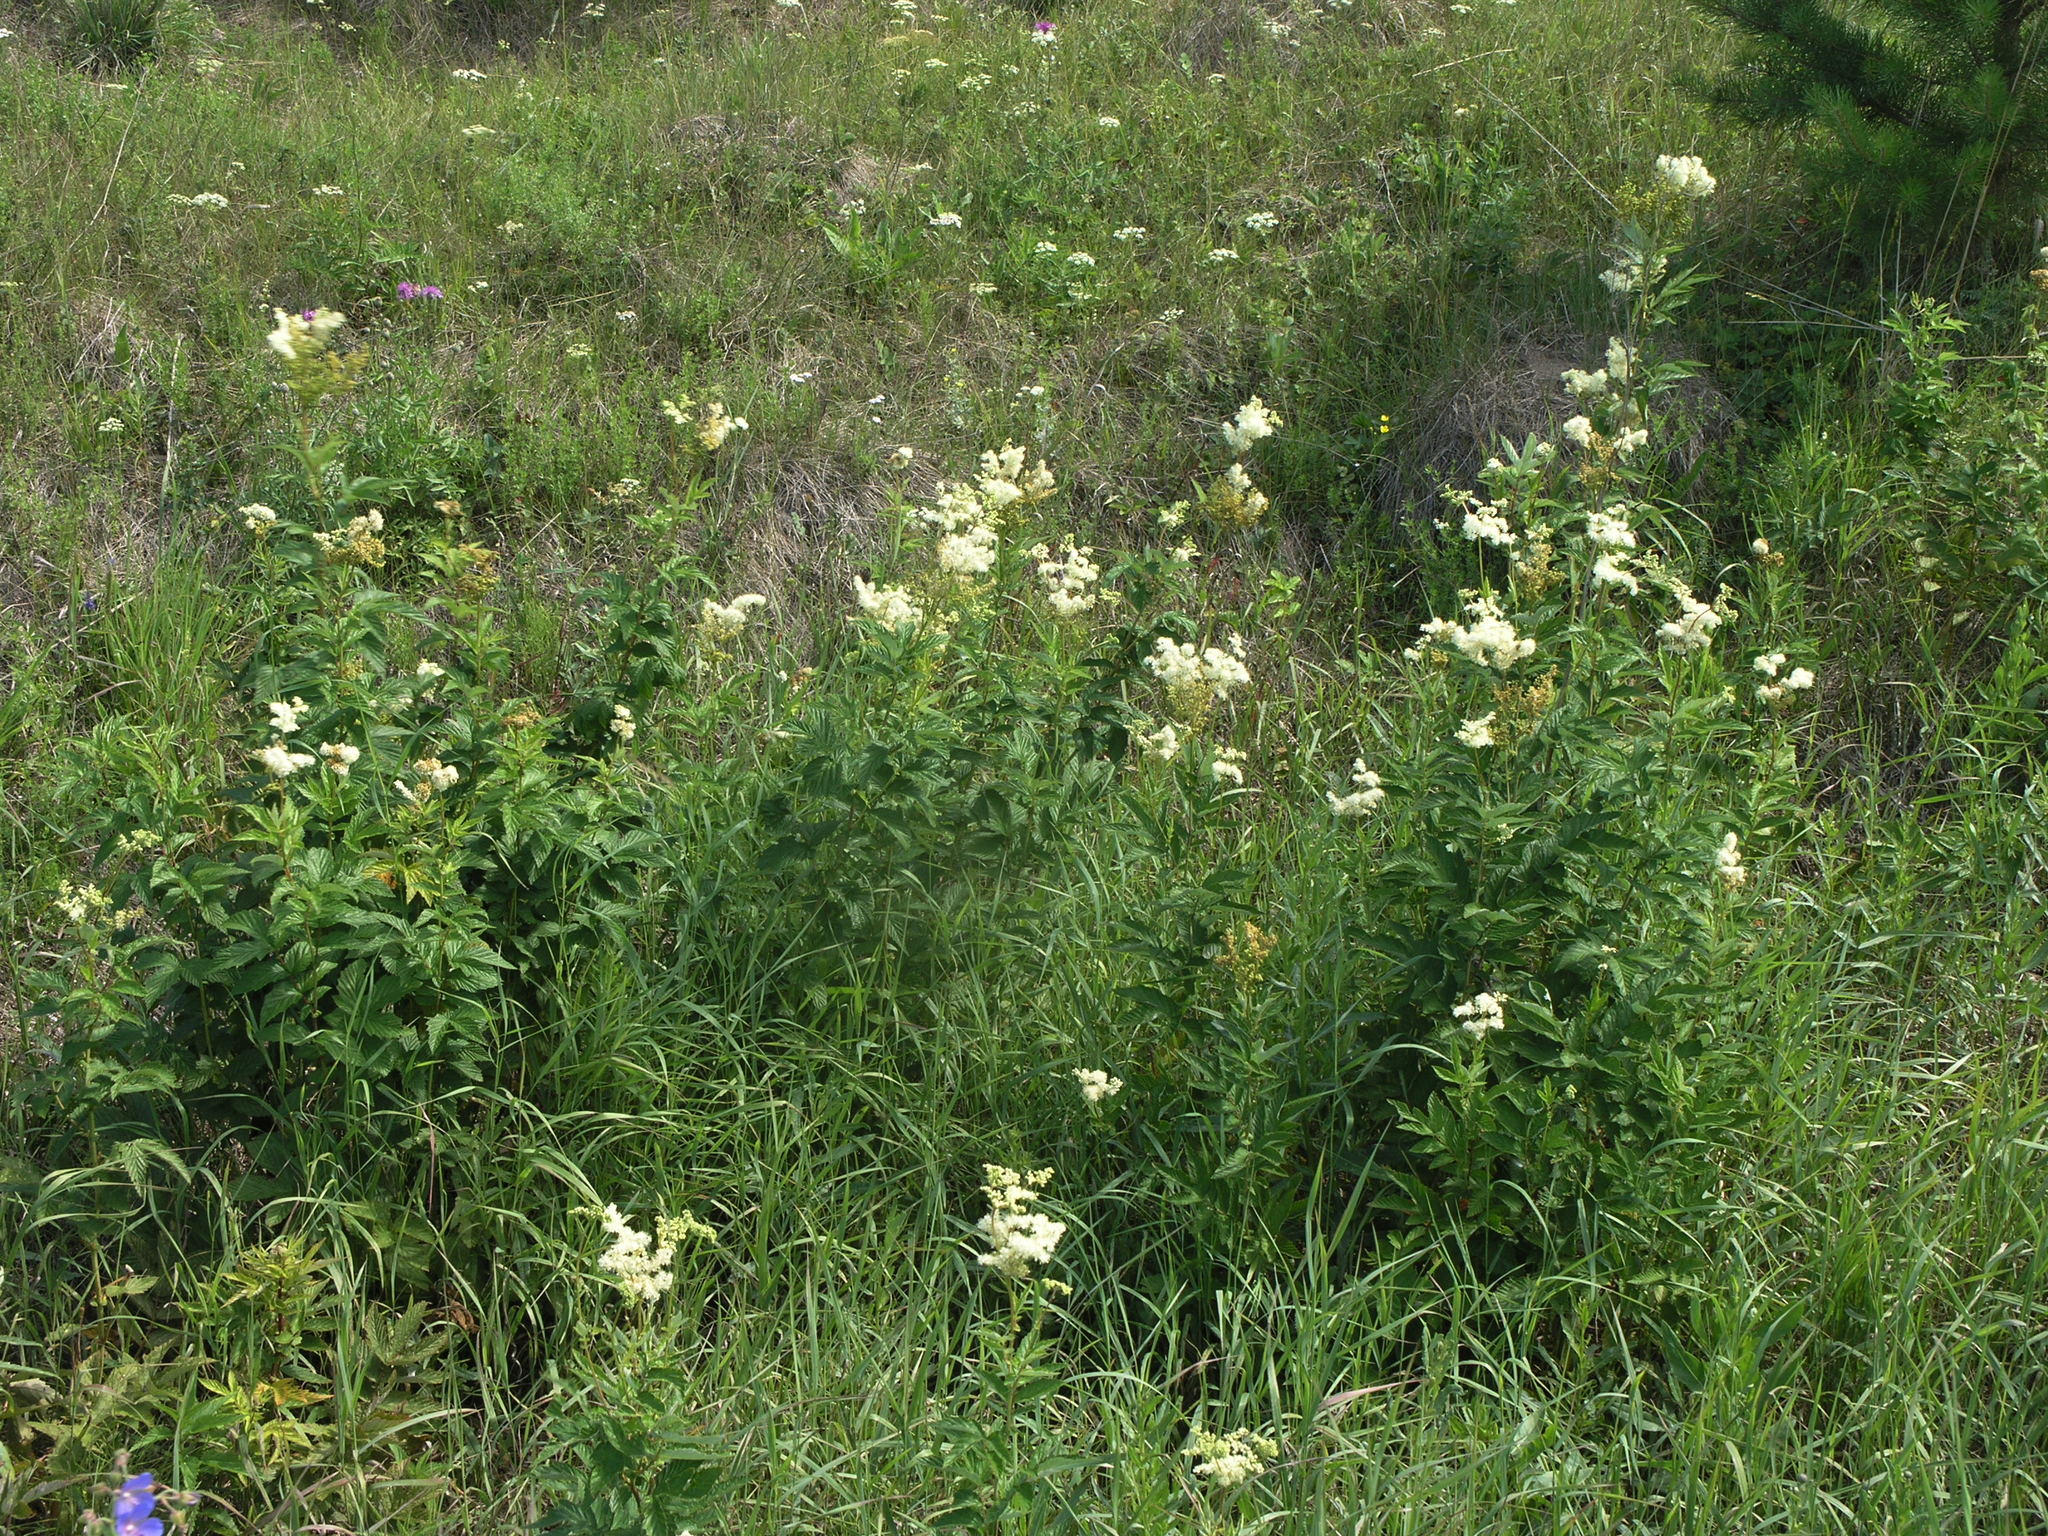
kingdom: Plantae
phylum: Tracheophyta
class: Magnoliopsida
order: Rosales
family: Rosaceae
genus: Filipendula
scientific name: Filipendula ulmaria
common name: Meadowsweet
